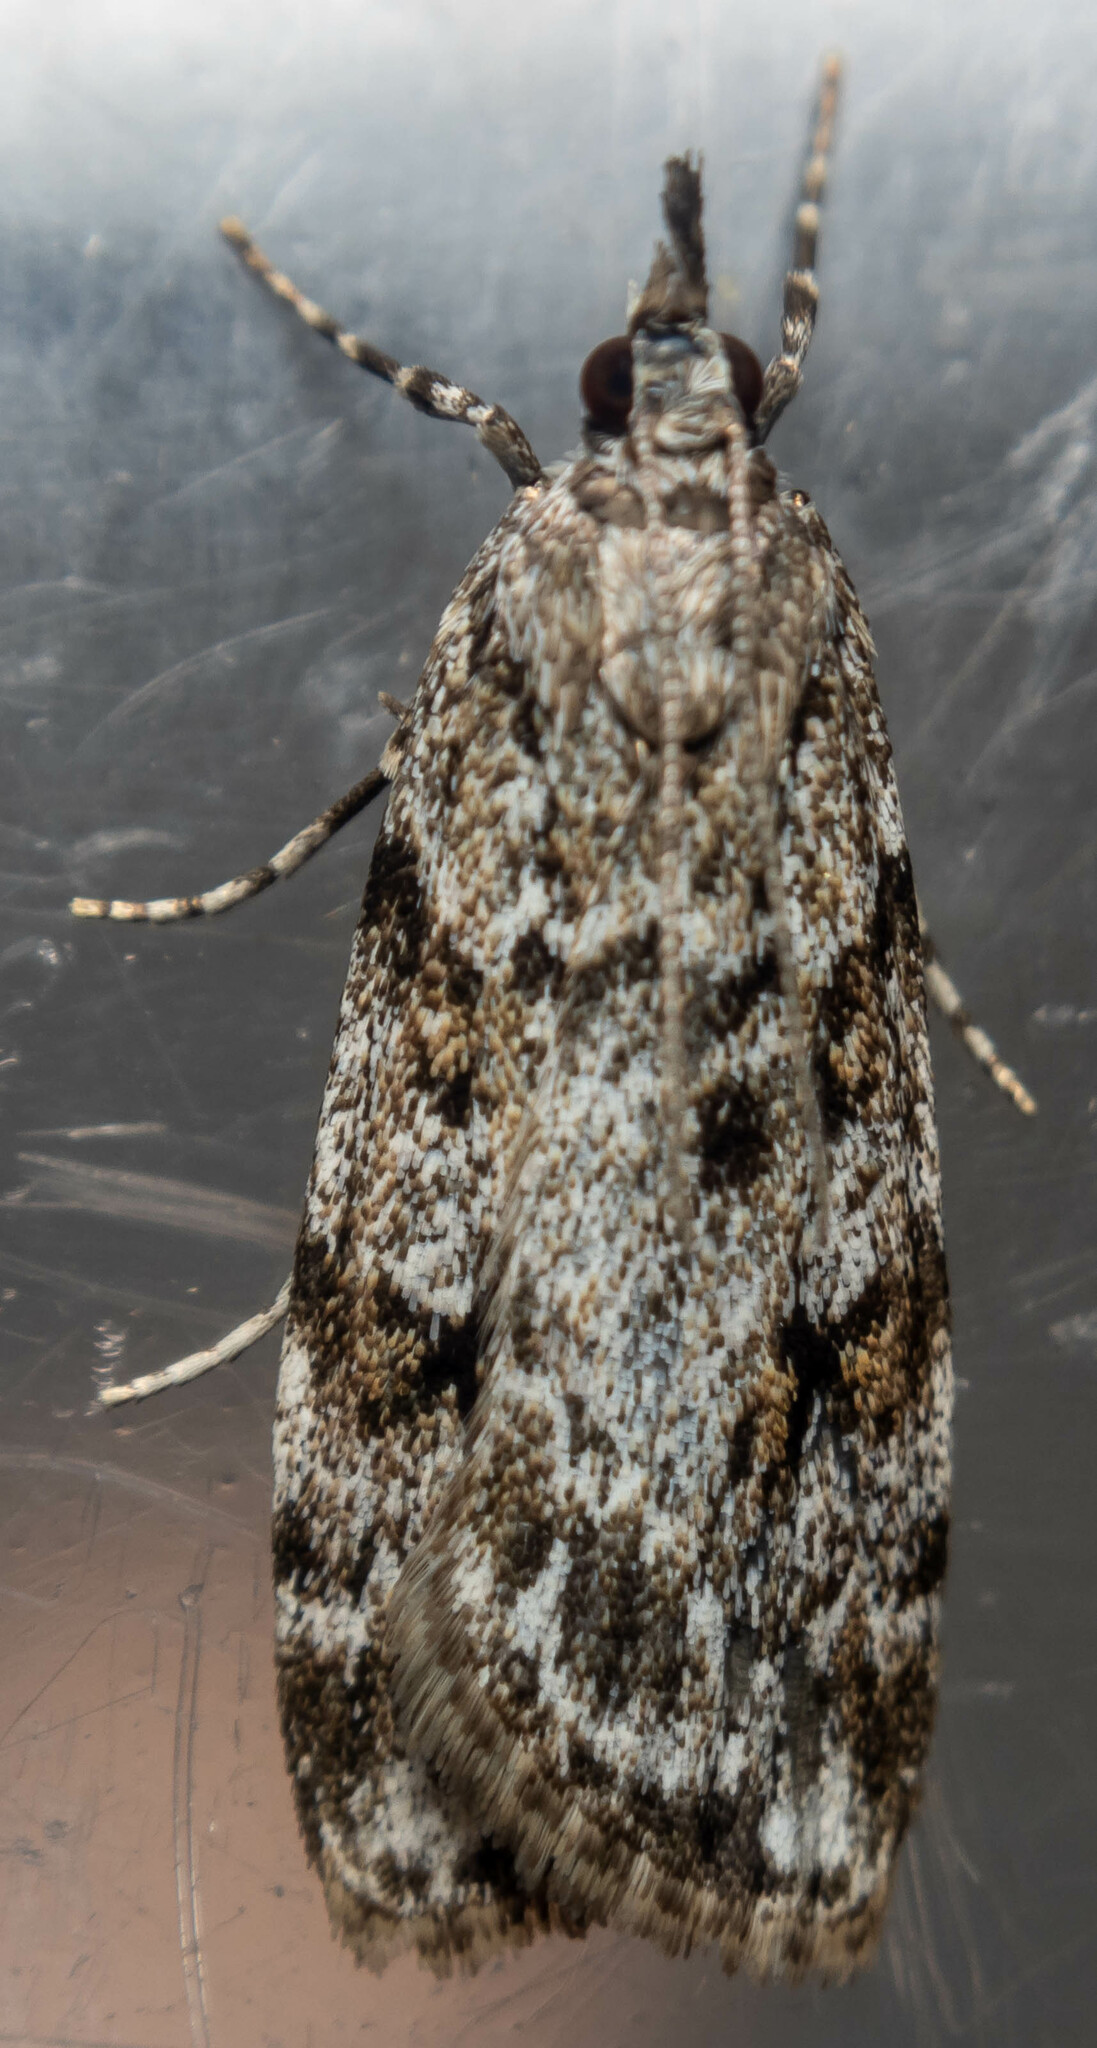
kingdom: Animalia
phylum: Arthropoda
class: Insecta
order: Lepidoptera
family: Crambidae
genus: Scoparia
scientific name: Scoparia ambigualis
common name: Common grey
